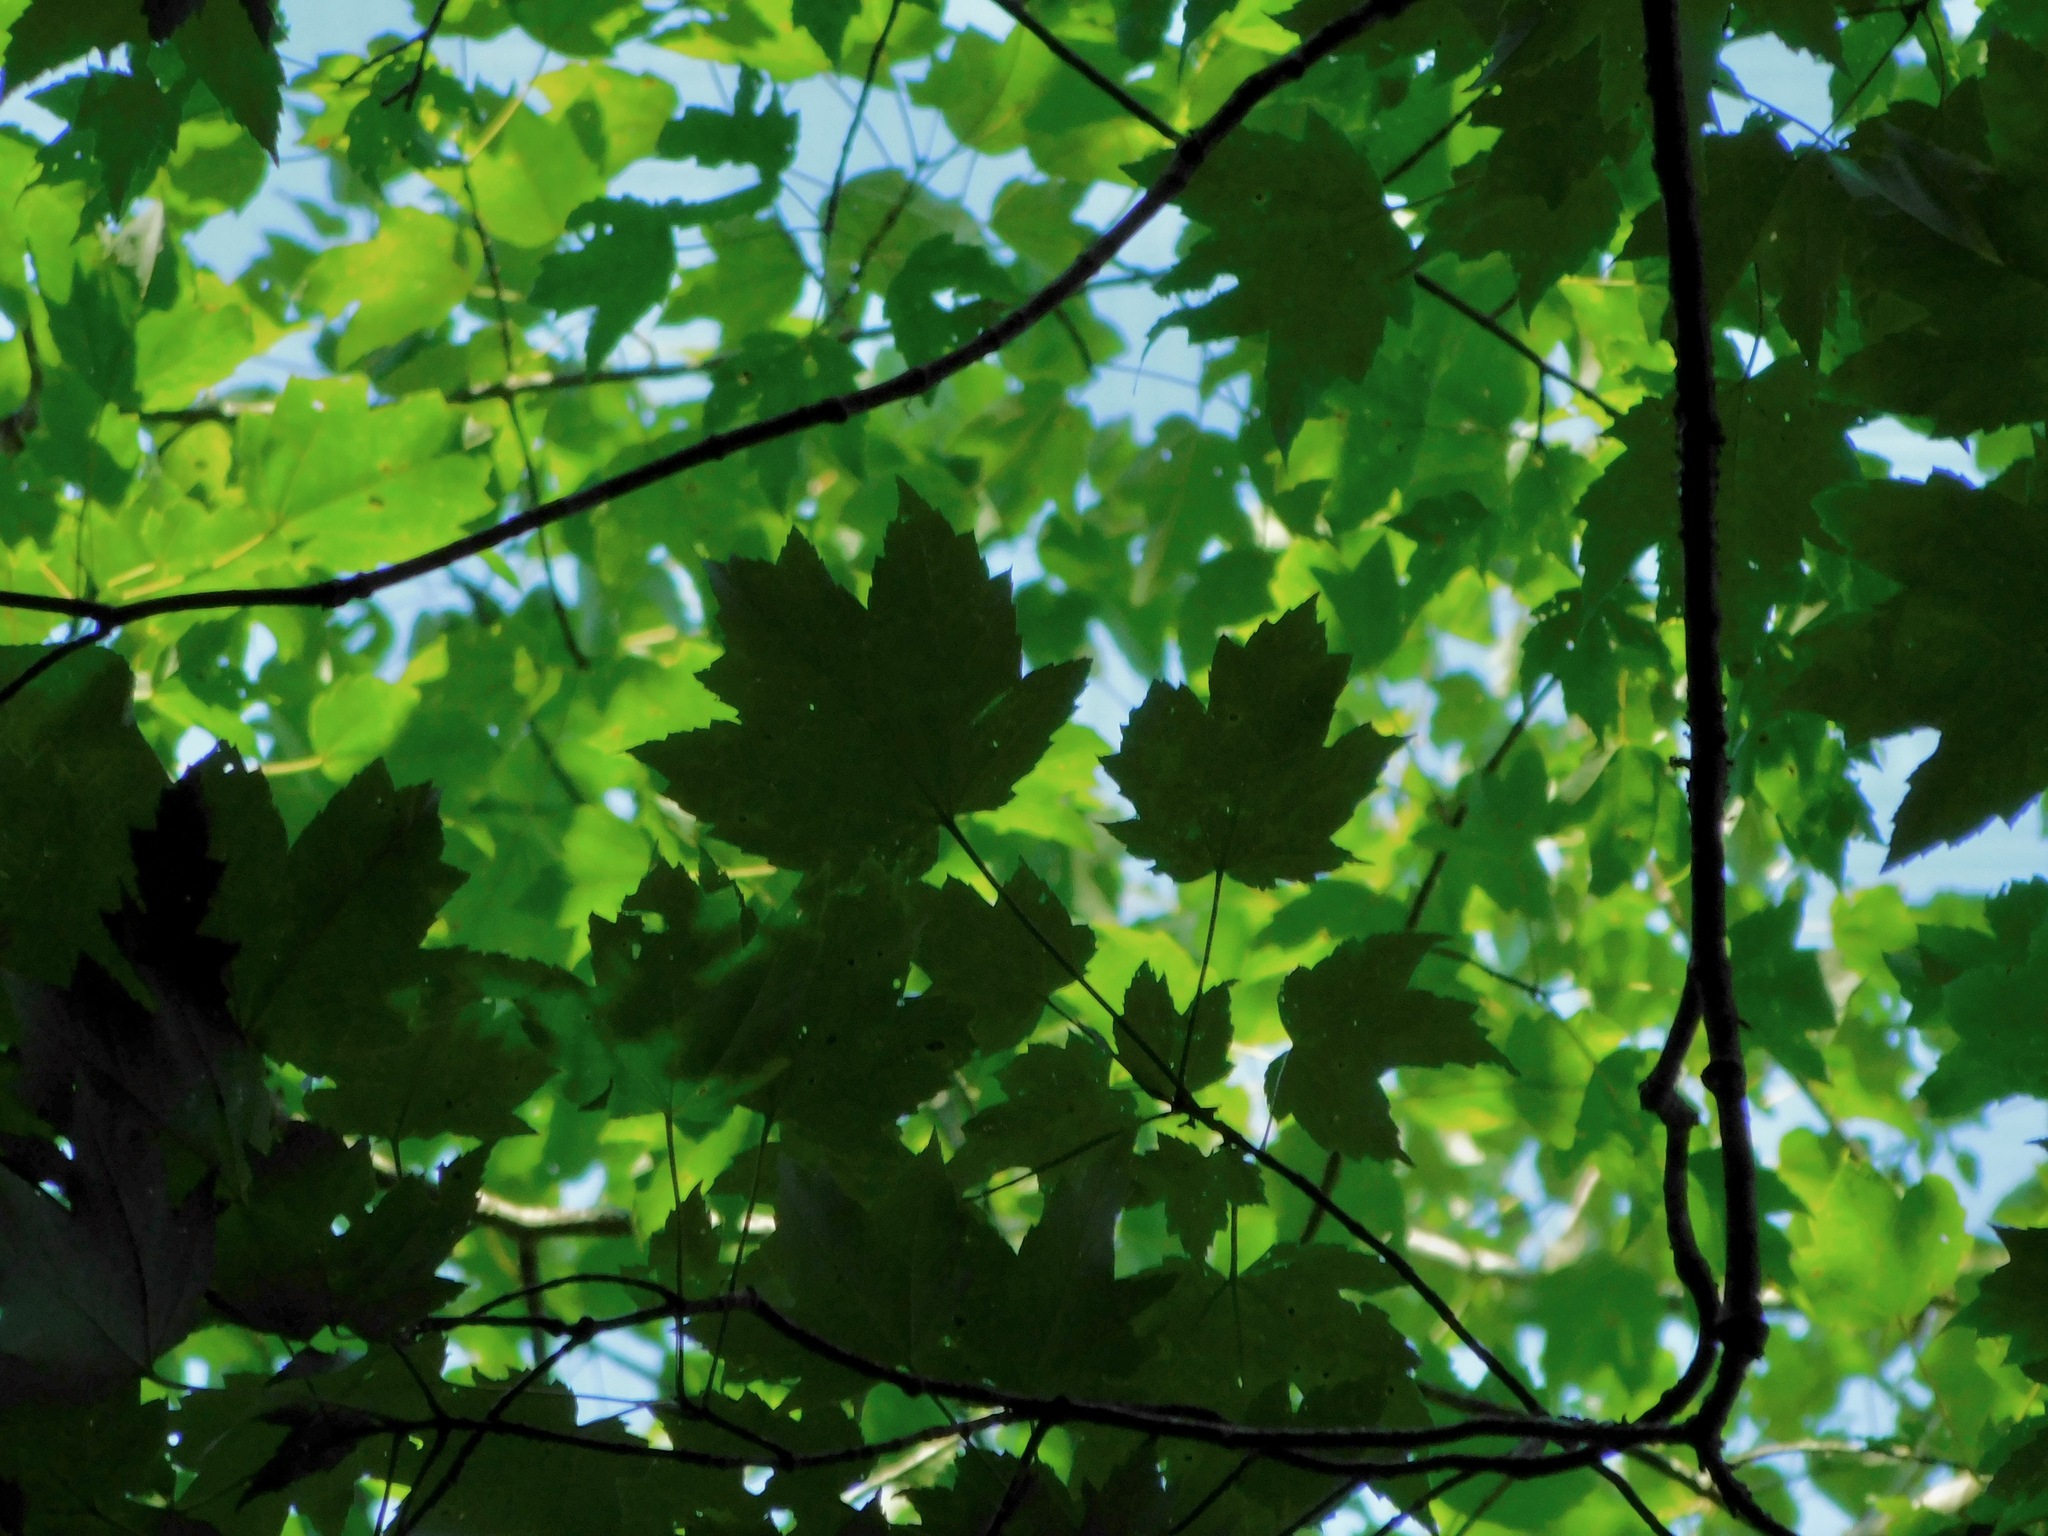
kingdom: Plantae
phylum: Tracheophyta
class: Magnoliopsida
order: Sapindales
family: Sapindaceae
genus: Acer
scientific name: Acer freemanii
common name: Freeman maple
